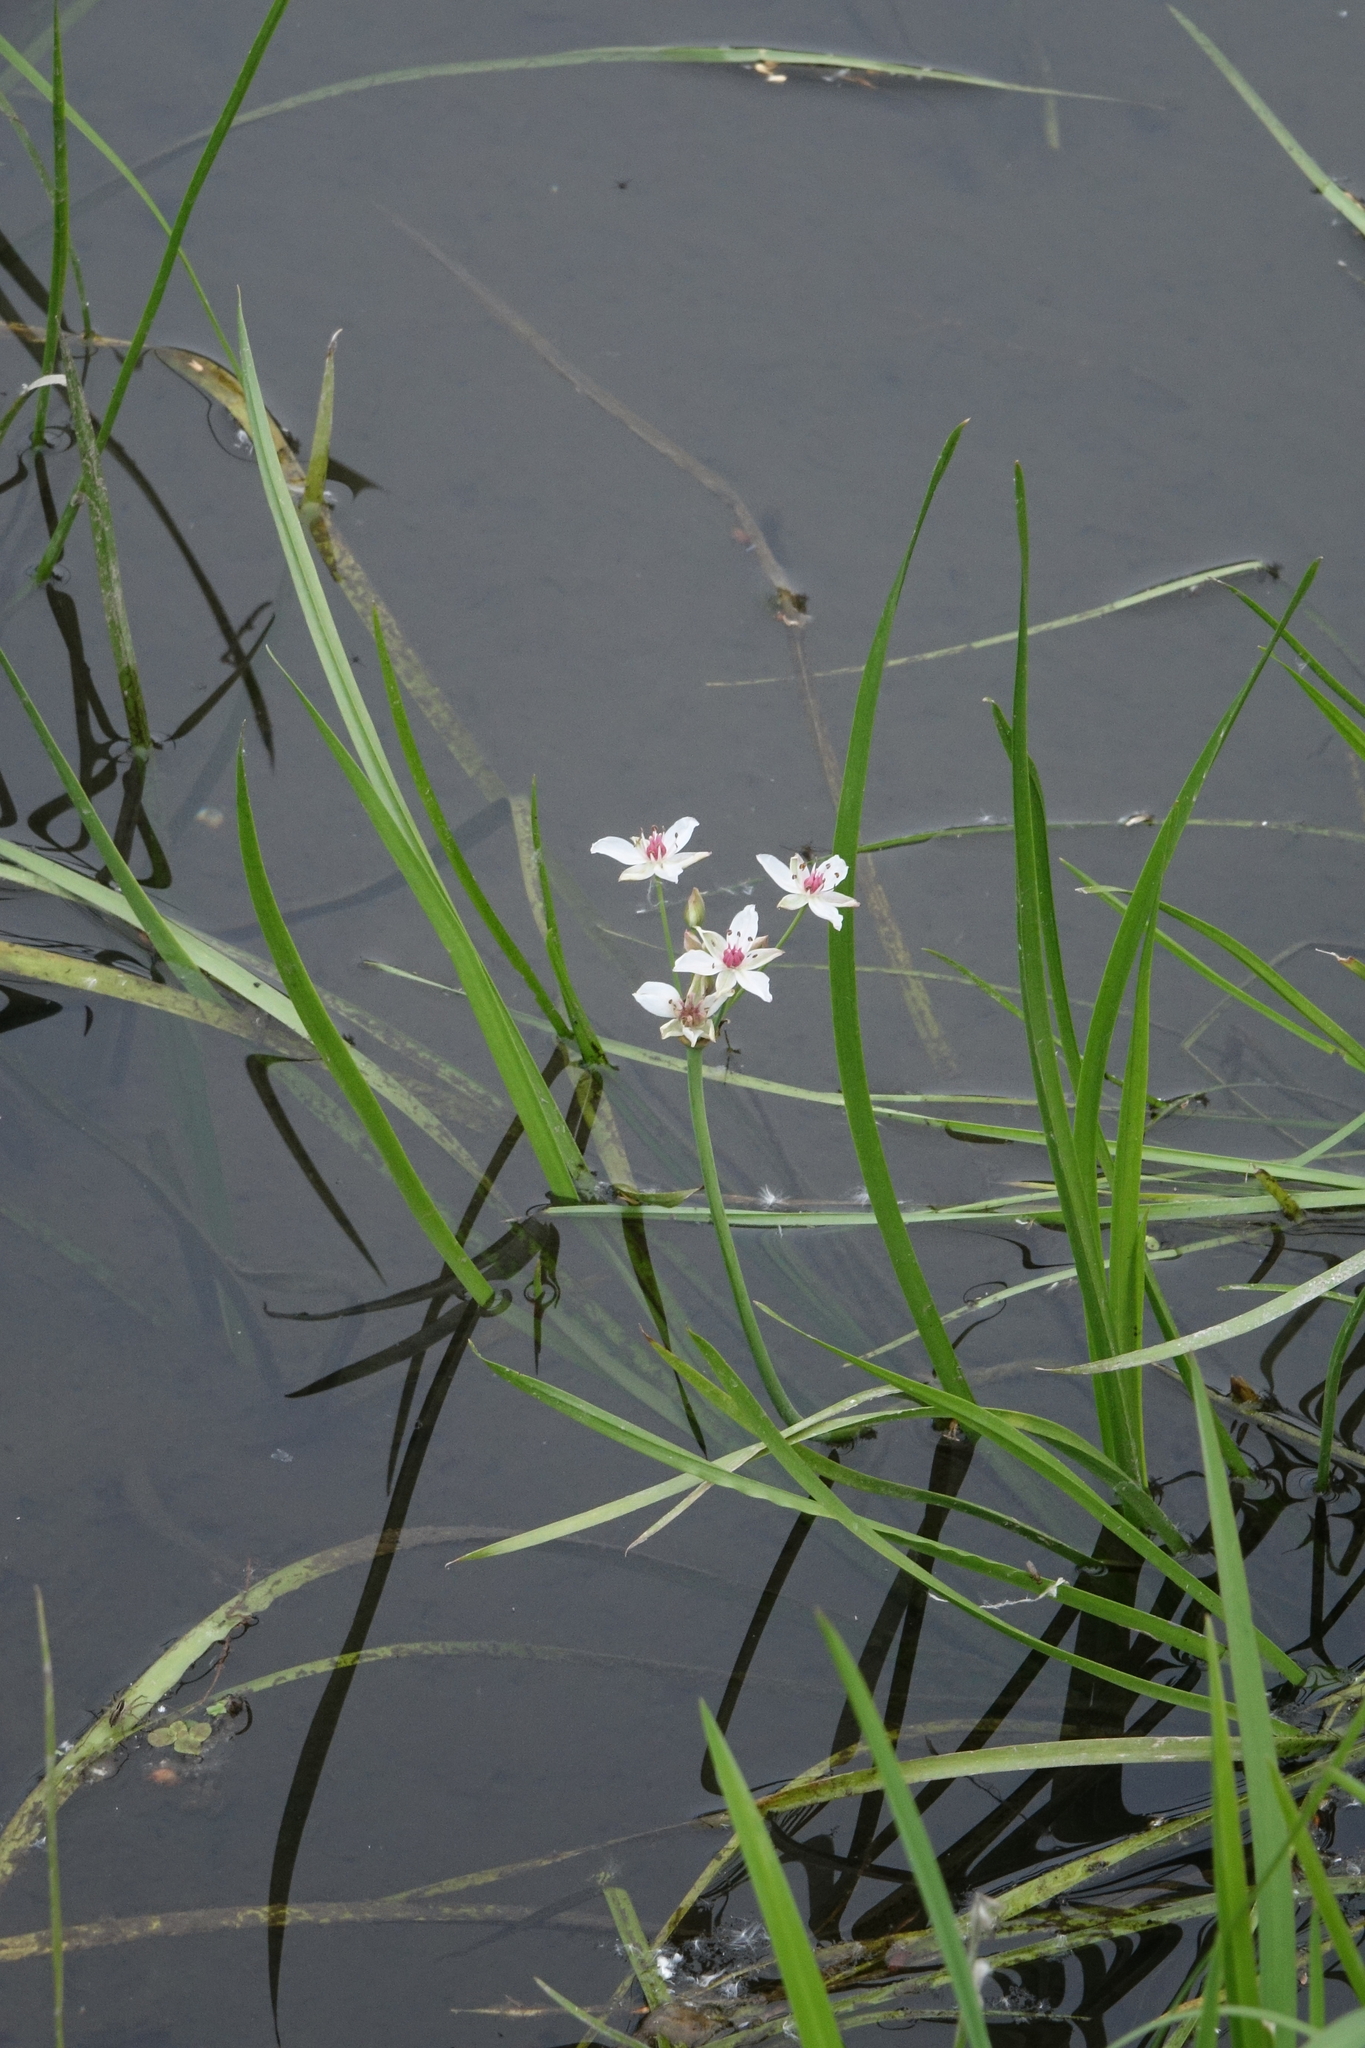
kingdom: Plantae
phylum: Tracheophyta
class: Liliopsida
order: Alismatales
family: Butomaceae
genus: Butomus
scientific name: Butomus umbellatus
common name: Flowering-rush
